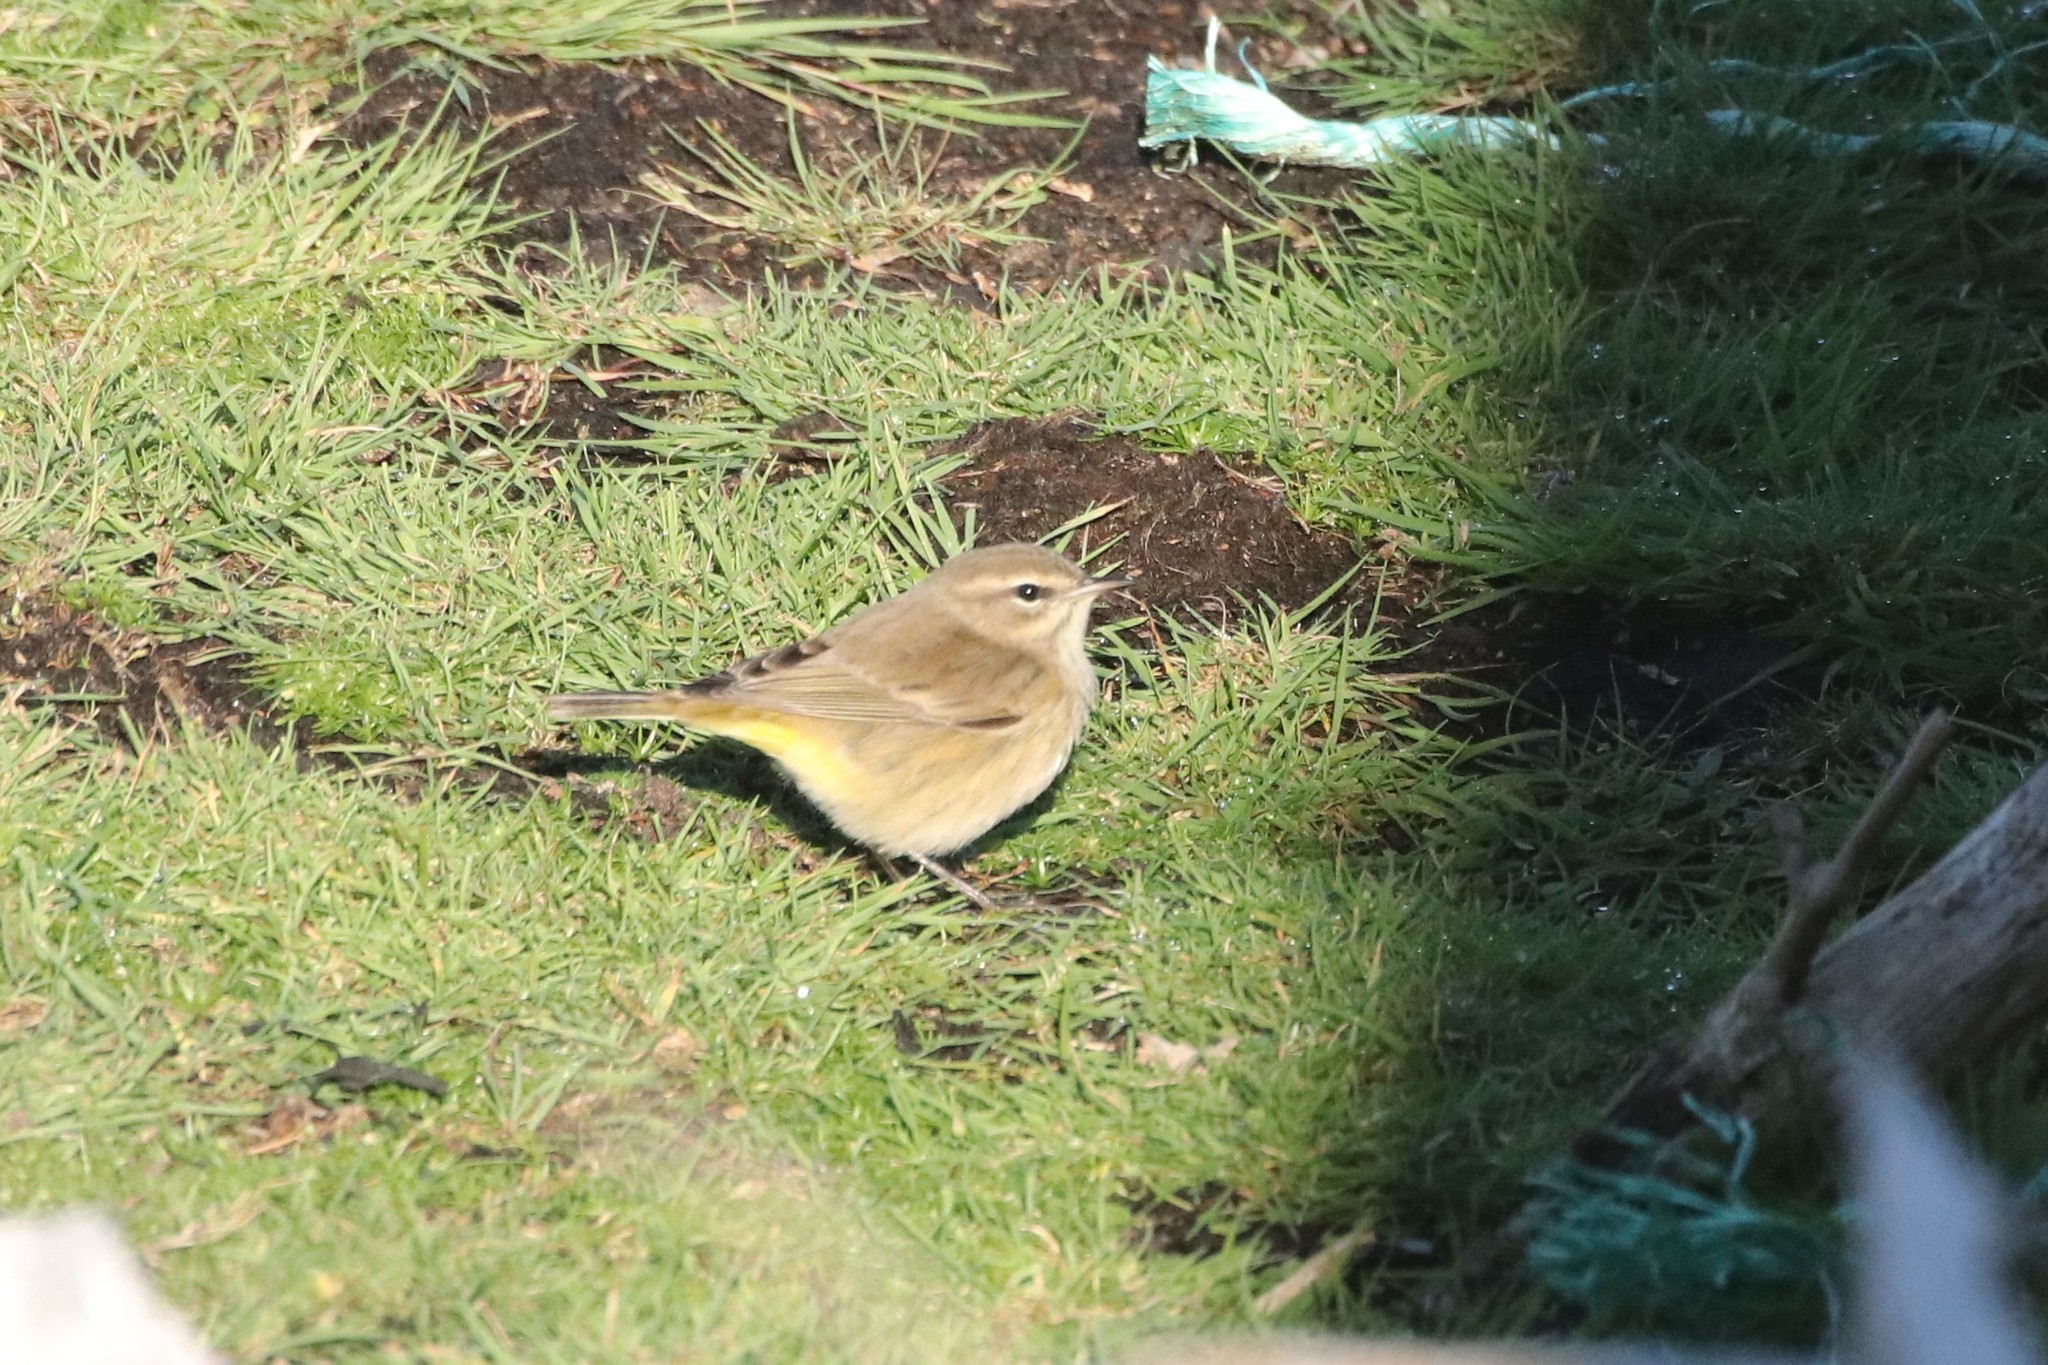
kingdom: Animalia
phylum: Chordata
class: Aves
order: Passeriformes
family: Parulidae
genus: Setophaga
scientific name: Setophaga palmarum
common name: Palm warbler
